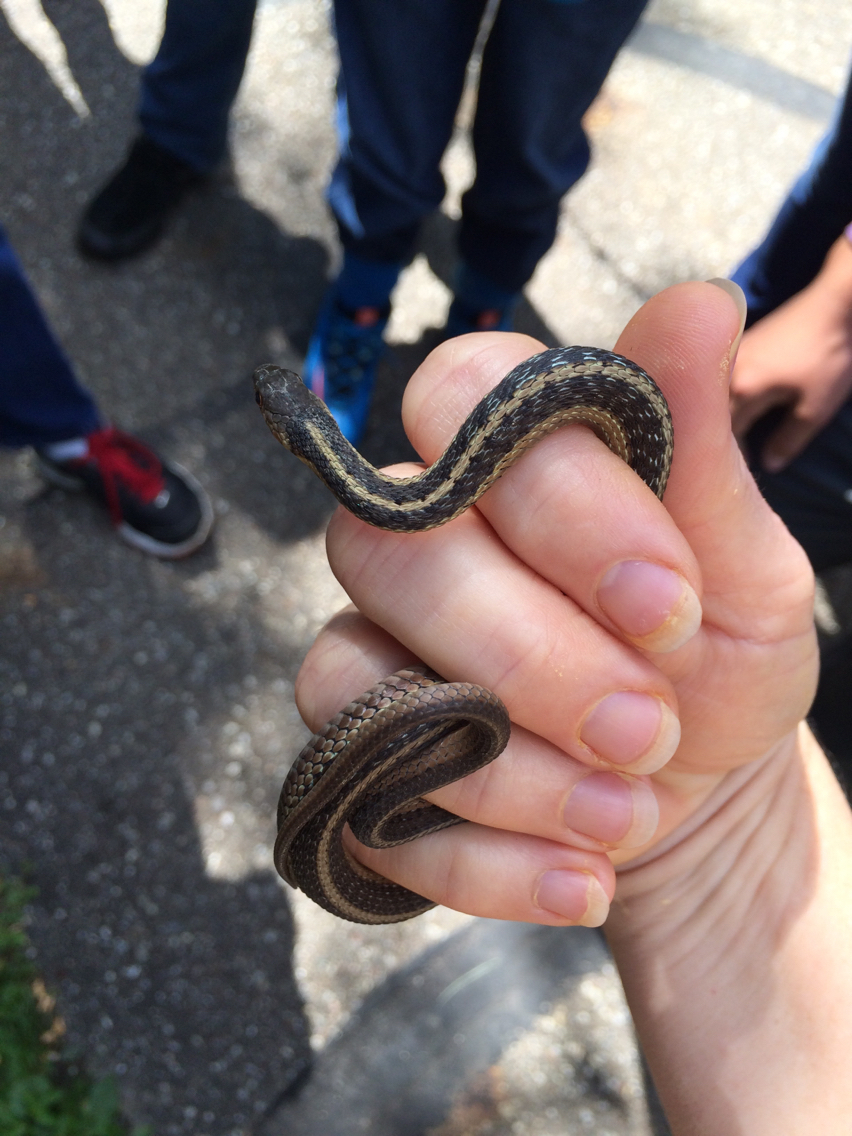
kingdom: Animalia
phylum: Chordata
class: Squamata
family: Colubridae
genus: Thamnophis
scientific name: Thamnophis sirtalis
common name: Common garter snake
